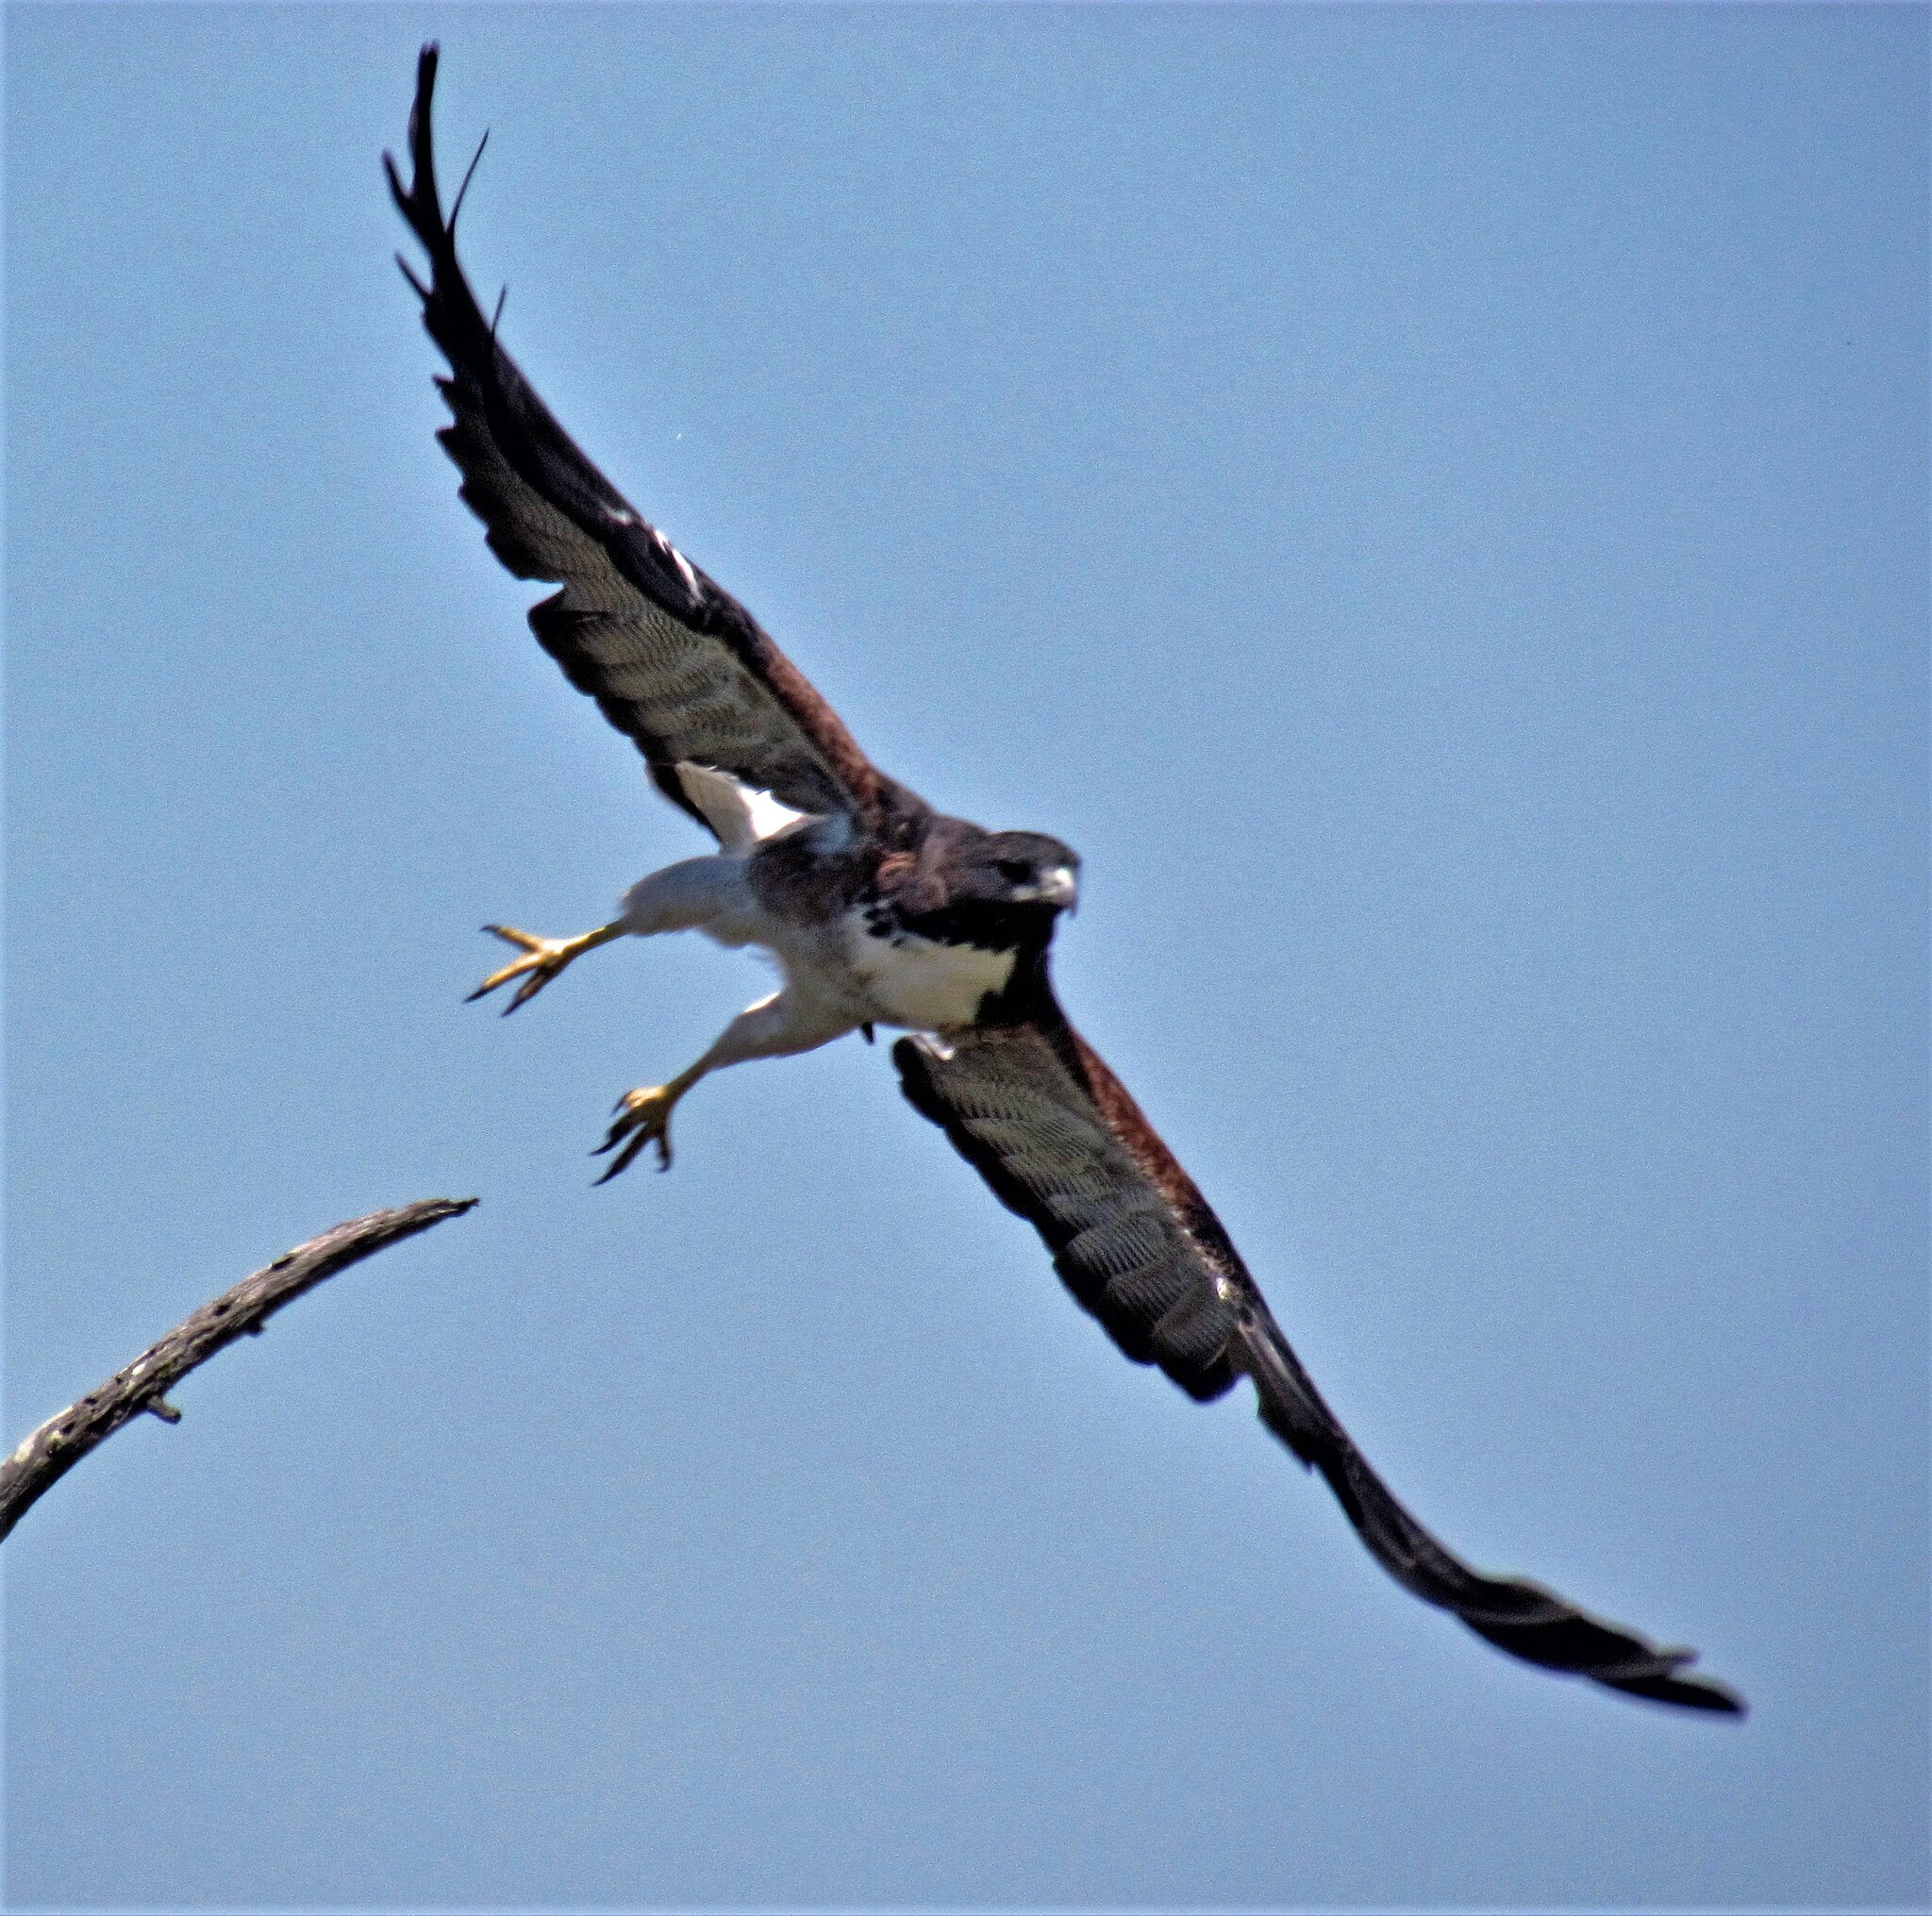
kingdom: Animalia
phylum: Chordata
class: Aves
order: Accipitriformes
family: Accipitridae
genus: Buteo
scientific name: Buteo albicaudatus
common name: White-tailed hawk
